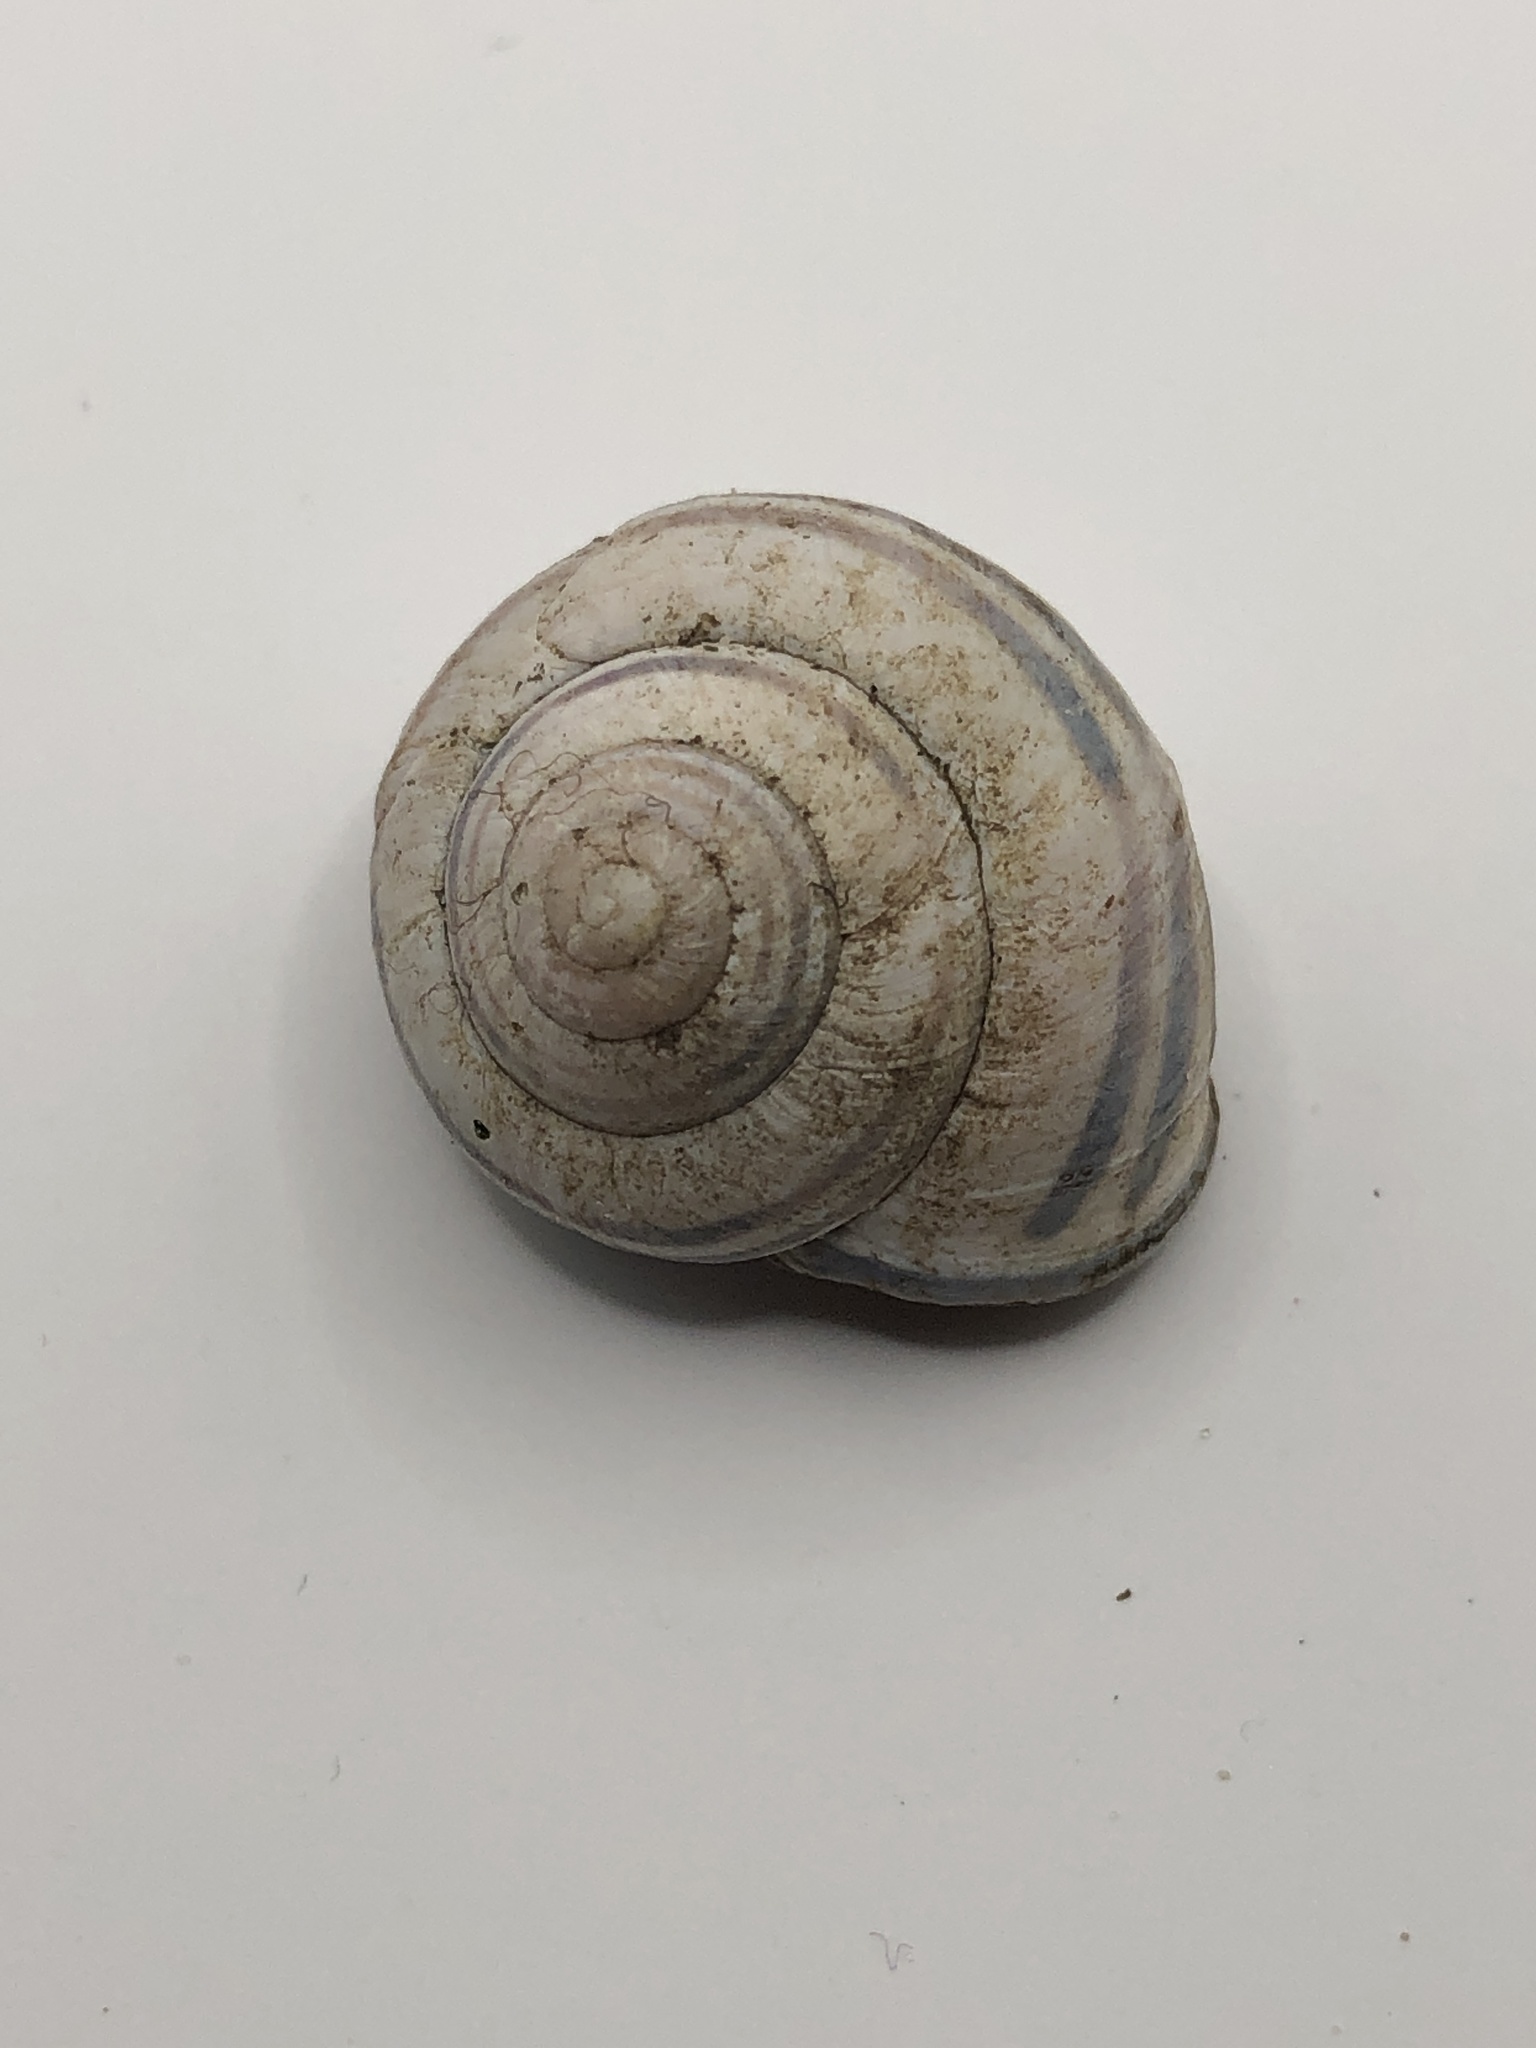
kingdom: Animalia
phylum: Mollusca
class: Gastropoda
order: Stylommatophora
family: Helicidae
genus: Cepaea
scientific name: Cepaea nemoralis
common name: Grovesnail
